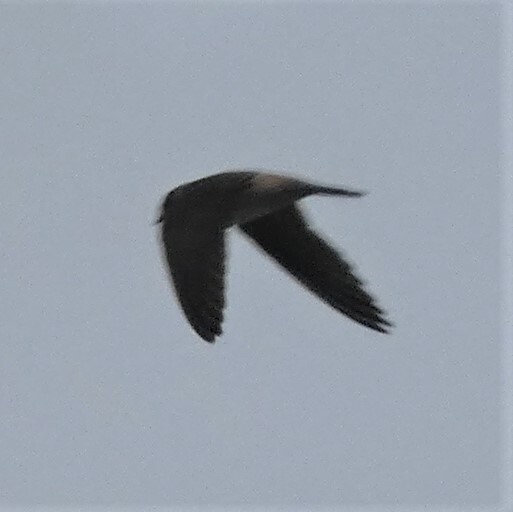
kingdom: Animalia
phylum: Chordata
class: Aves
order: Passeriformes
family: Hirundinidae
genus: Petrochelidon
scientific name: Petrochelidon pyrrhonota
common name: American cliff swallow
